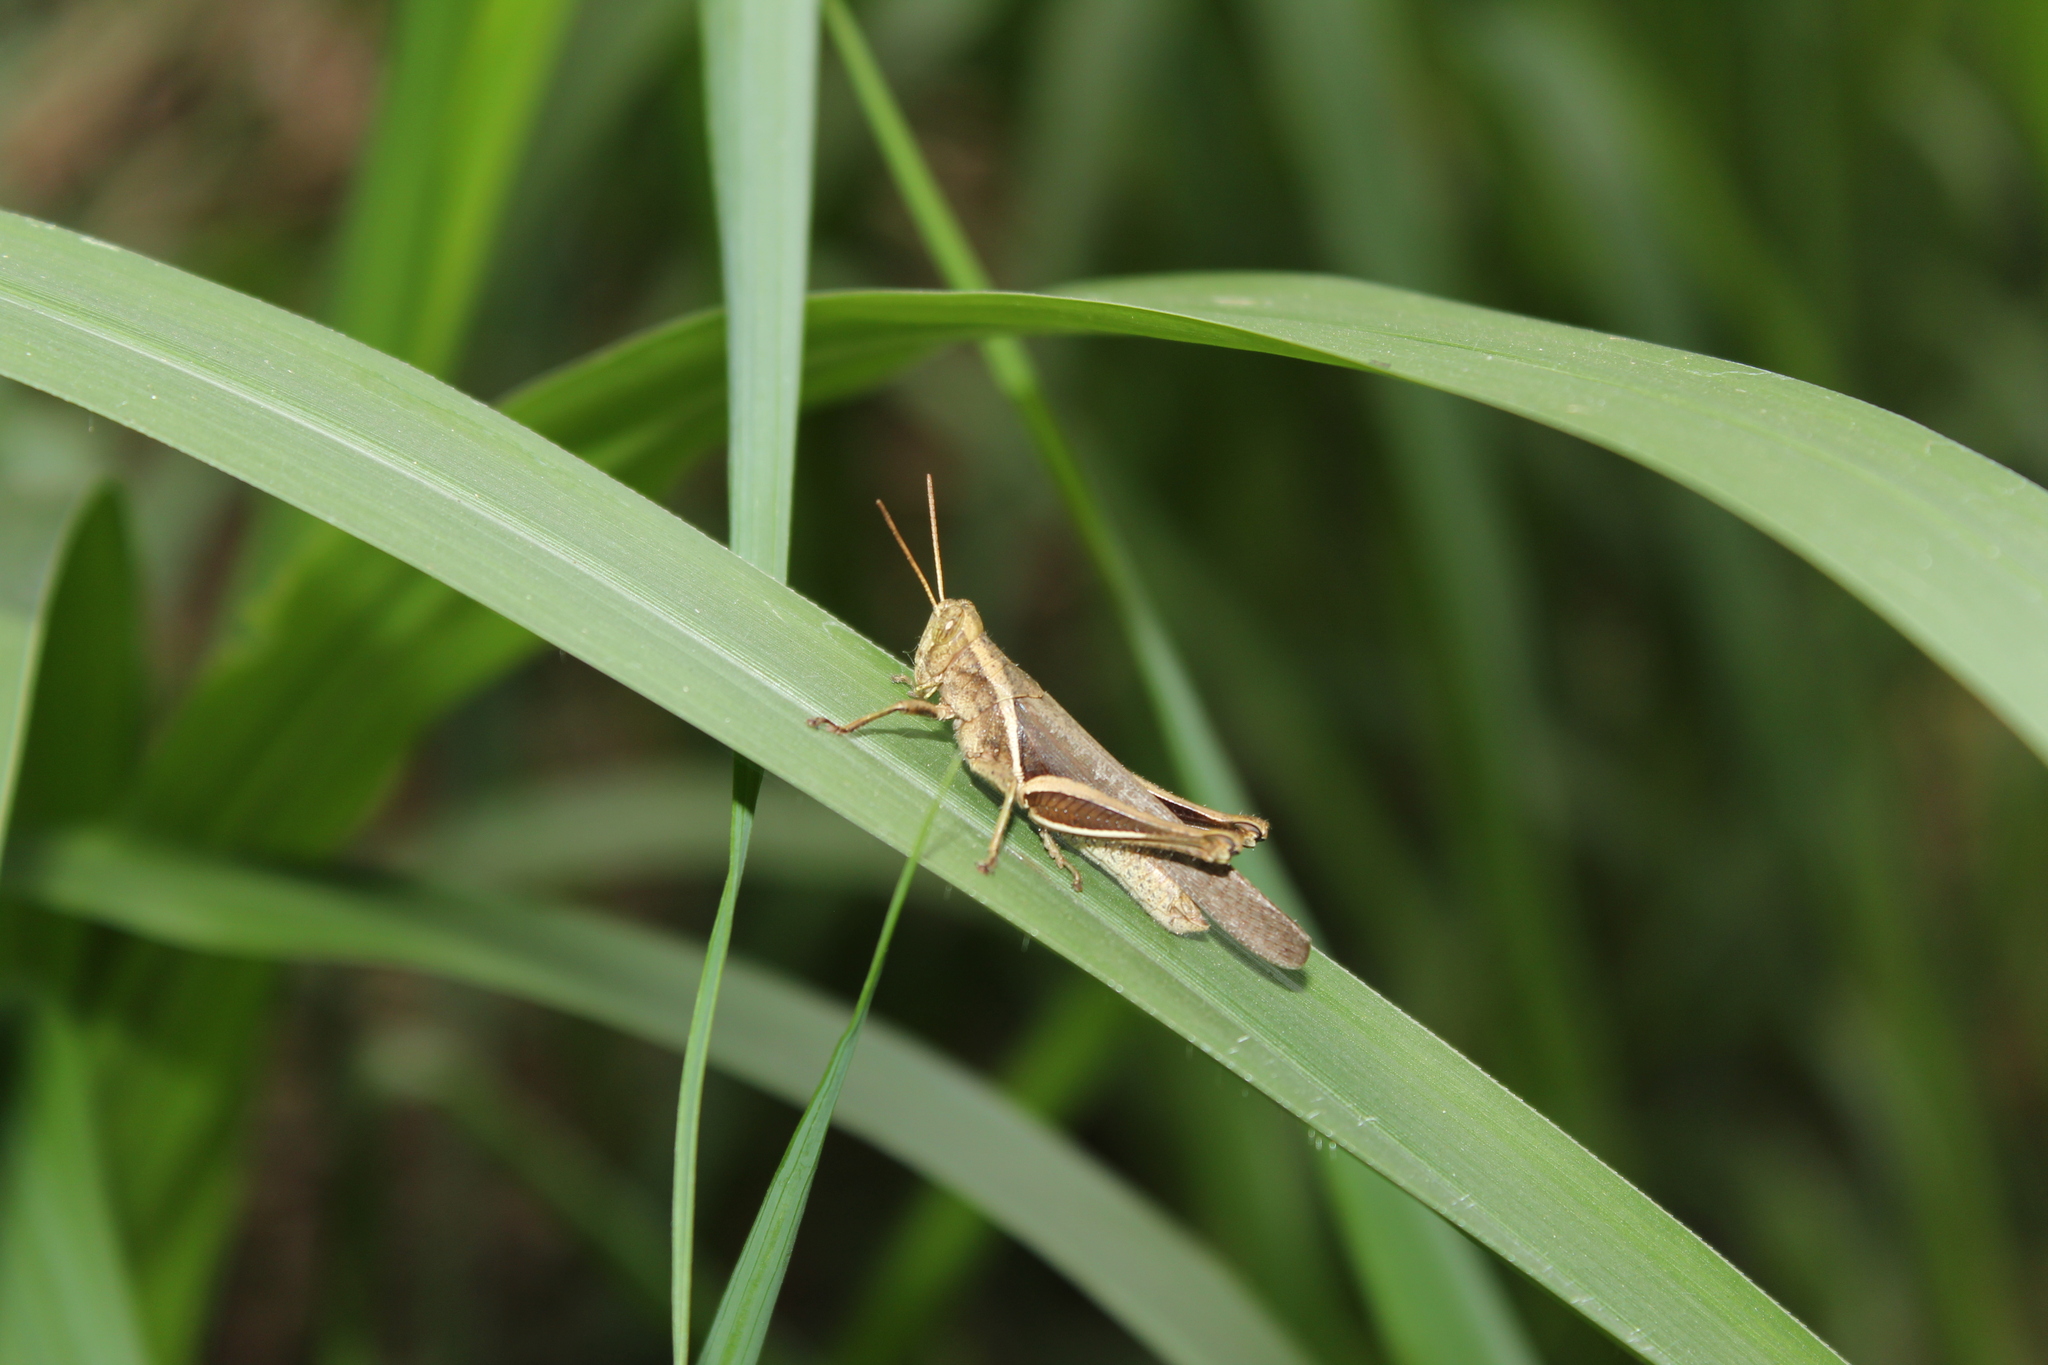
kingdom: Animalia
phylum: Arthropoda
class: Insecta
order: Orthoptera
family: Acrididae
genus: Abracris
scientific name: Abracris flavolineata
